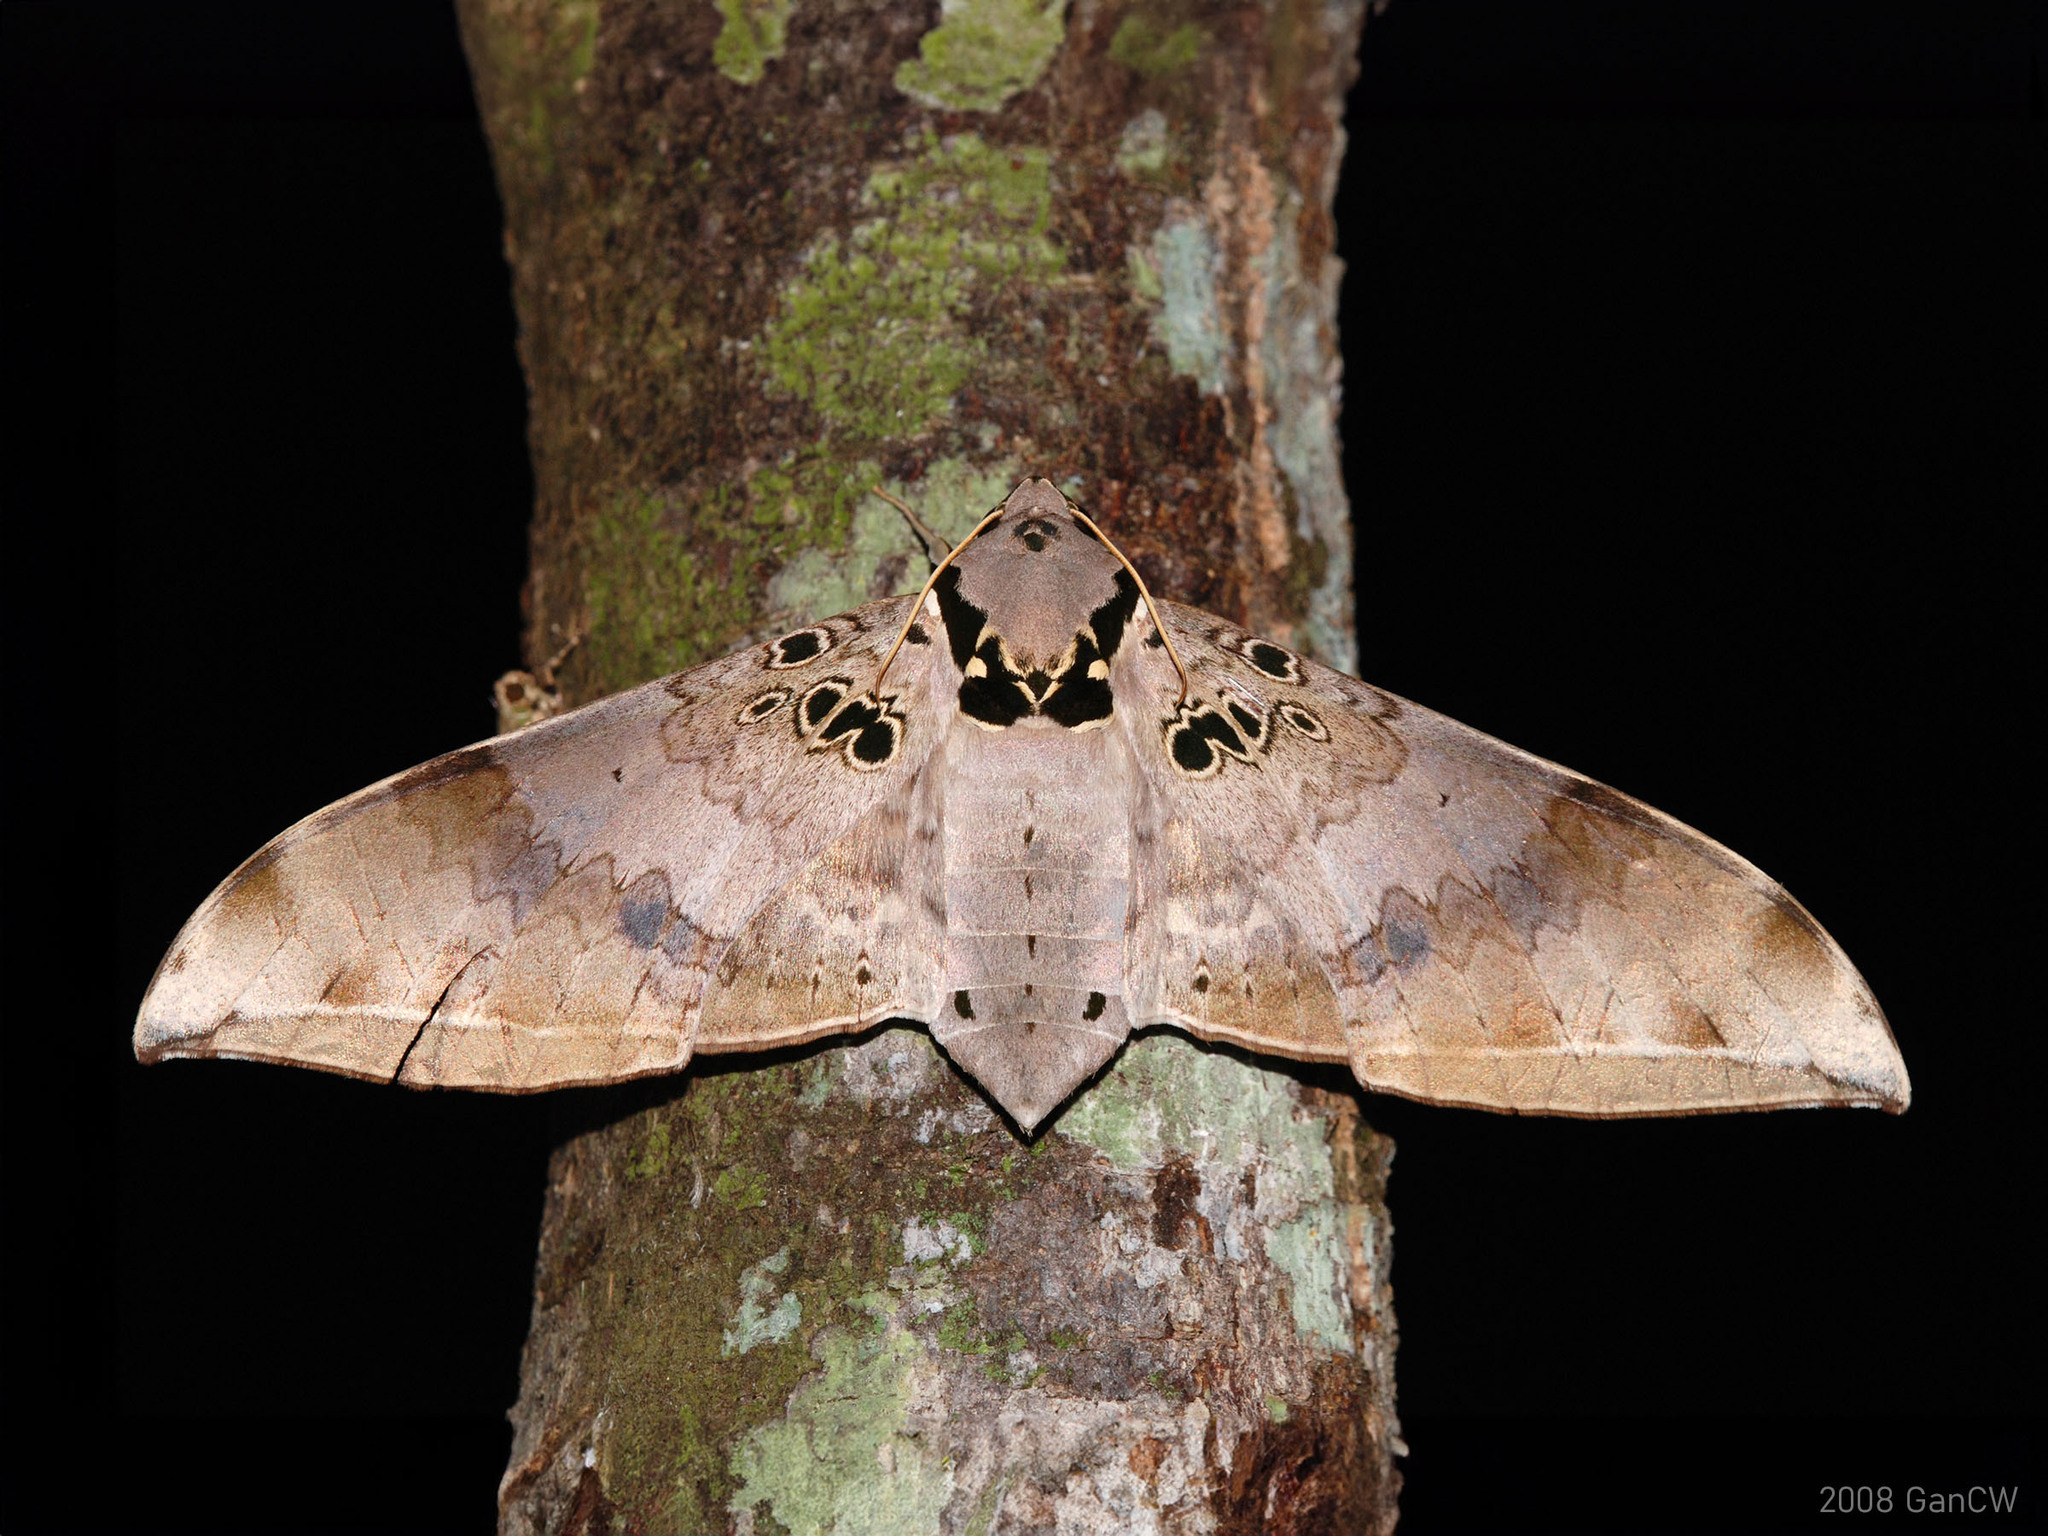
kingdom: Animalia
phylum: Arthropoda
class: Insecta
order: Lepidoptera
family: Sphingidae
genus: Ambulyx
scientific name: Ambulyx canescens
